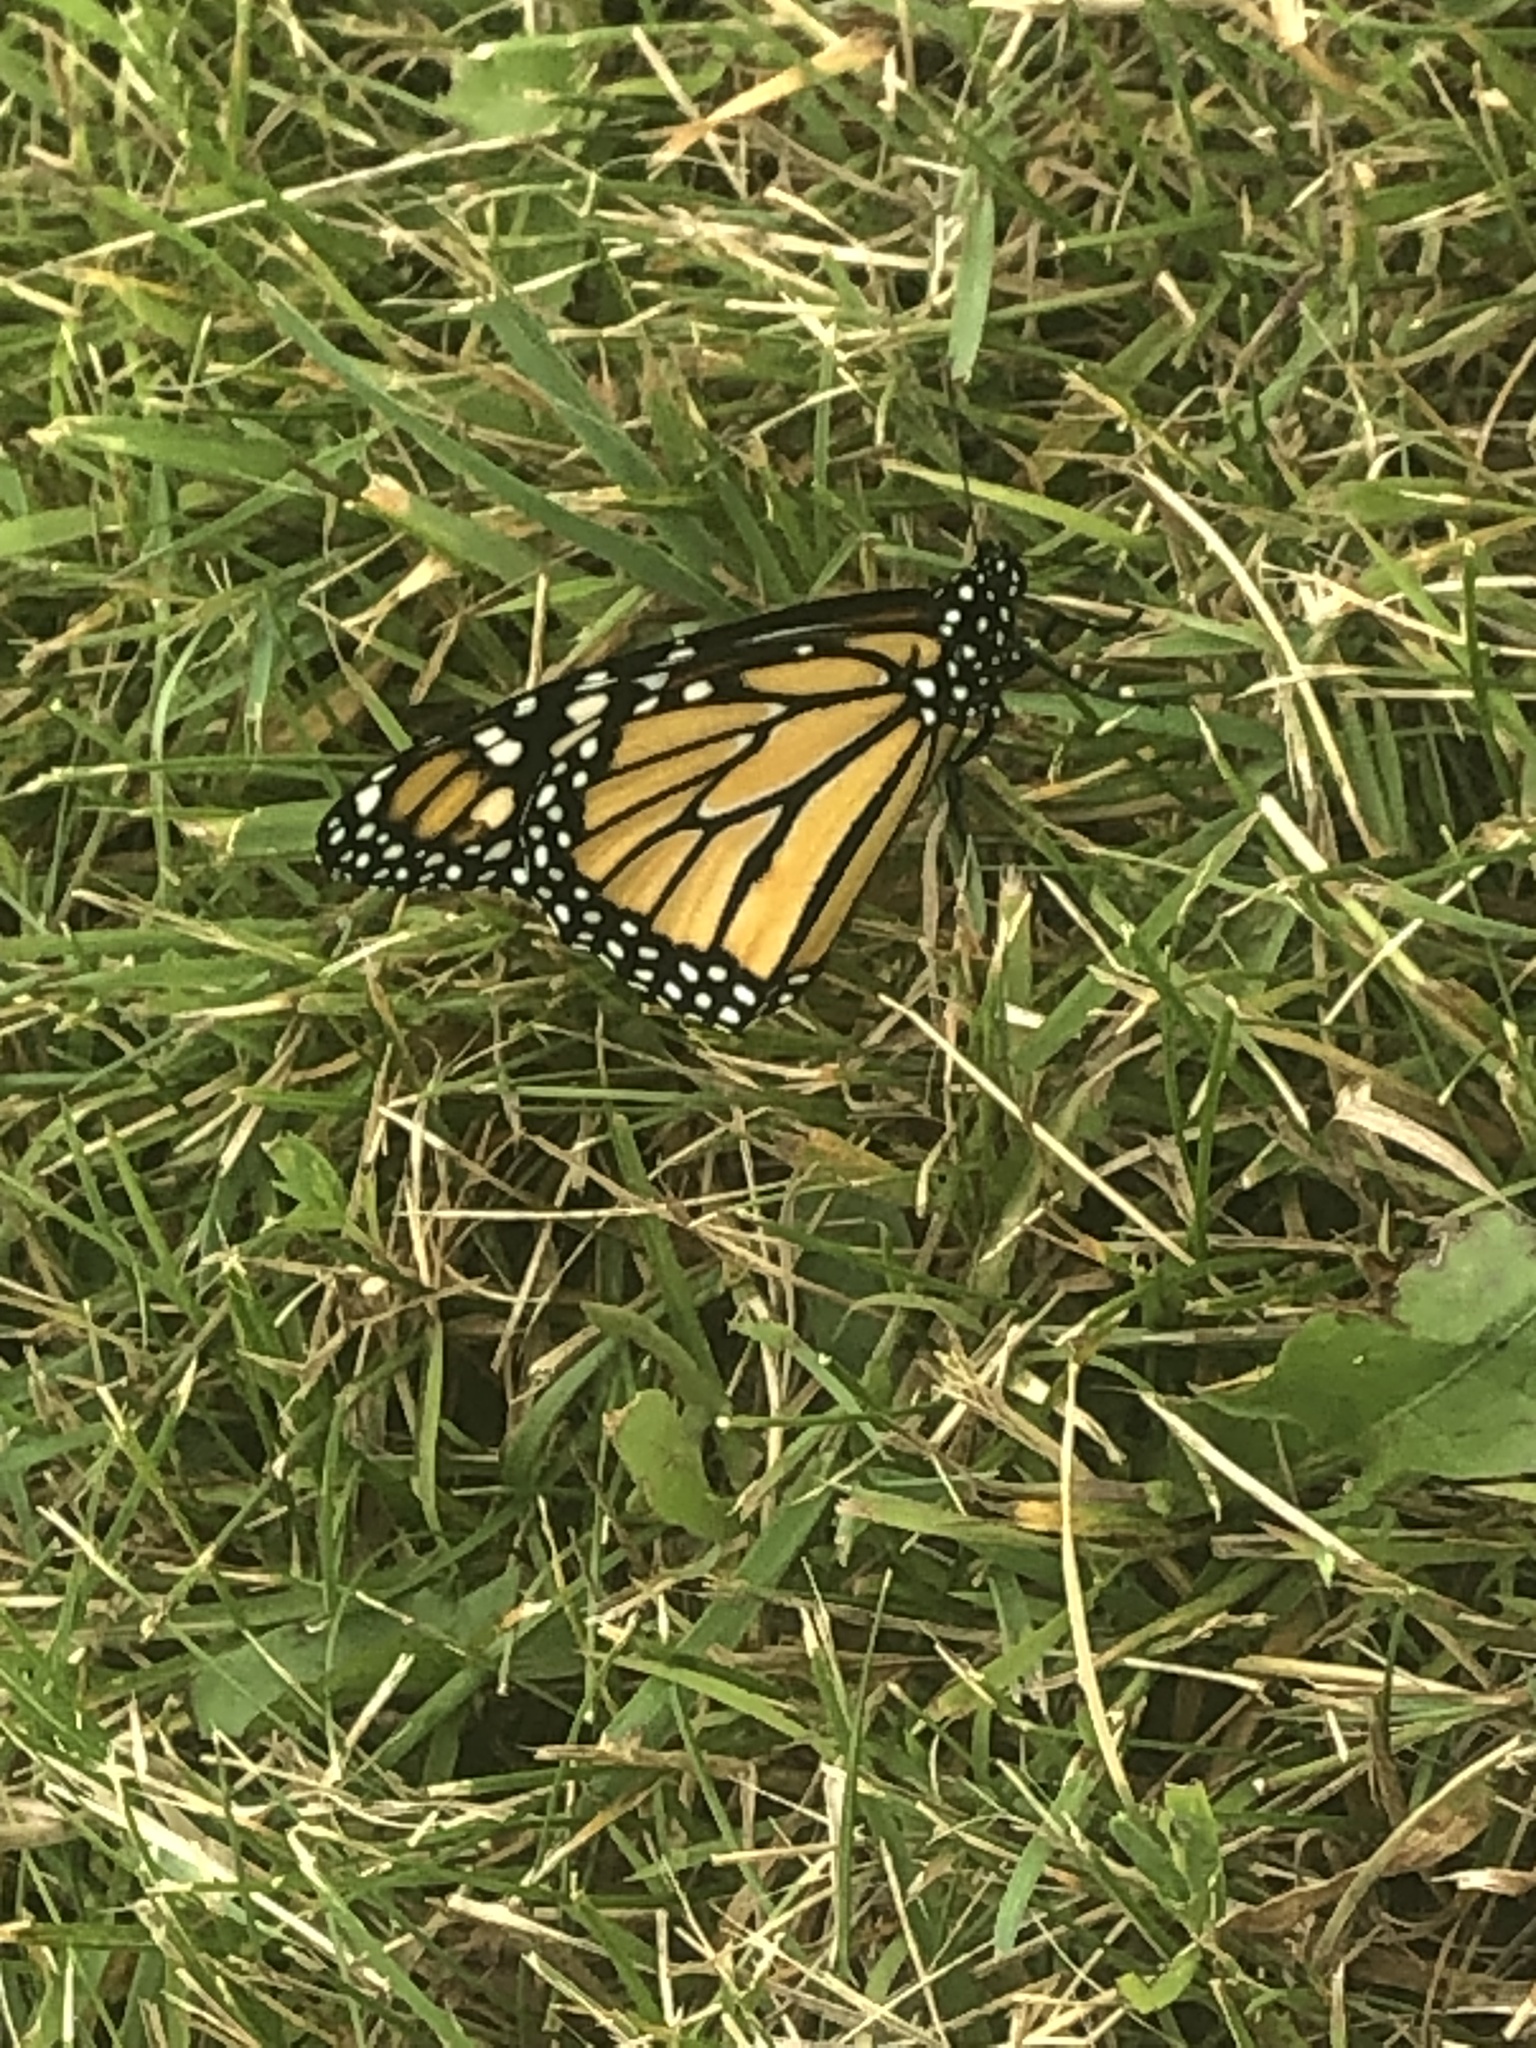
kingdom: Animalia
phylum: Arthropoda
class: Insecta
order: Lepidoptera
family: Nymphalidae
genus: Danaus
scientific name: Danaus plexippus
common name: Monarch
